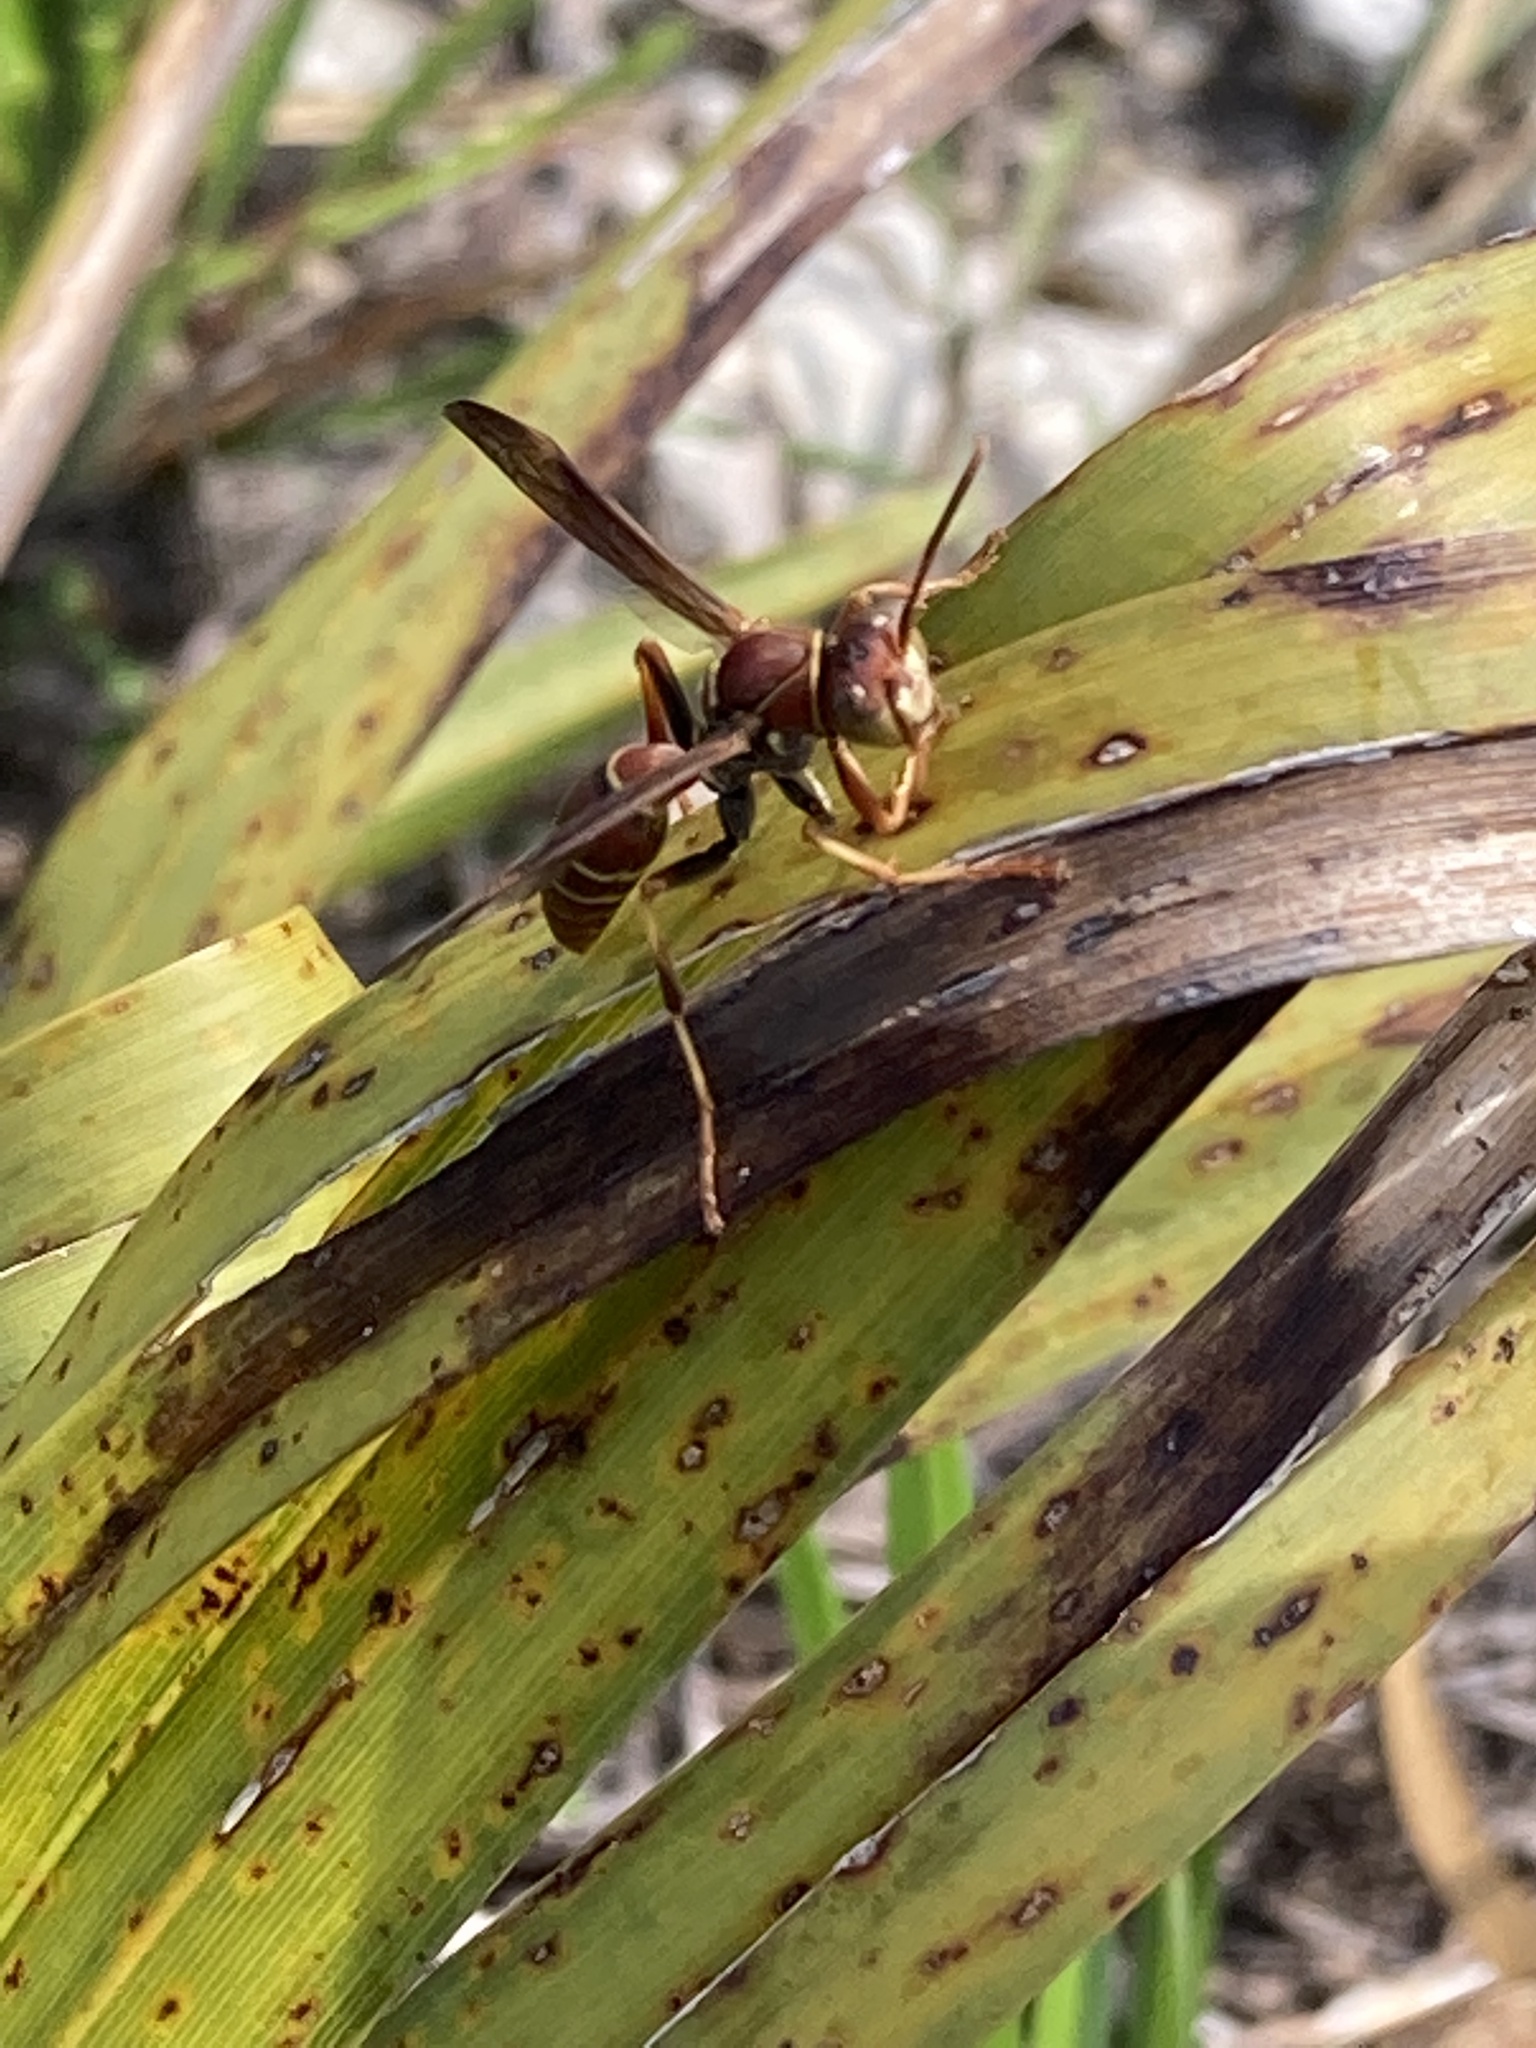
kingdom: Animalia
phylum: Arthropoda
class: Insecta
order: Hymenoptera
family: Eumenidae
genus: Polistes
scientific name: Polistes dorsalis
